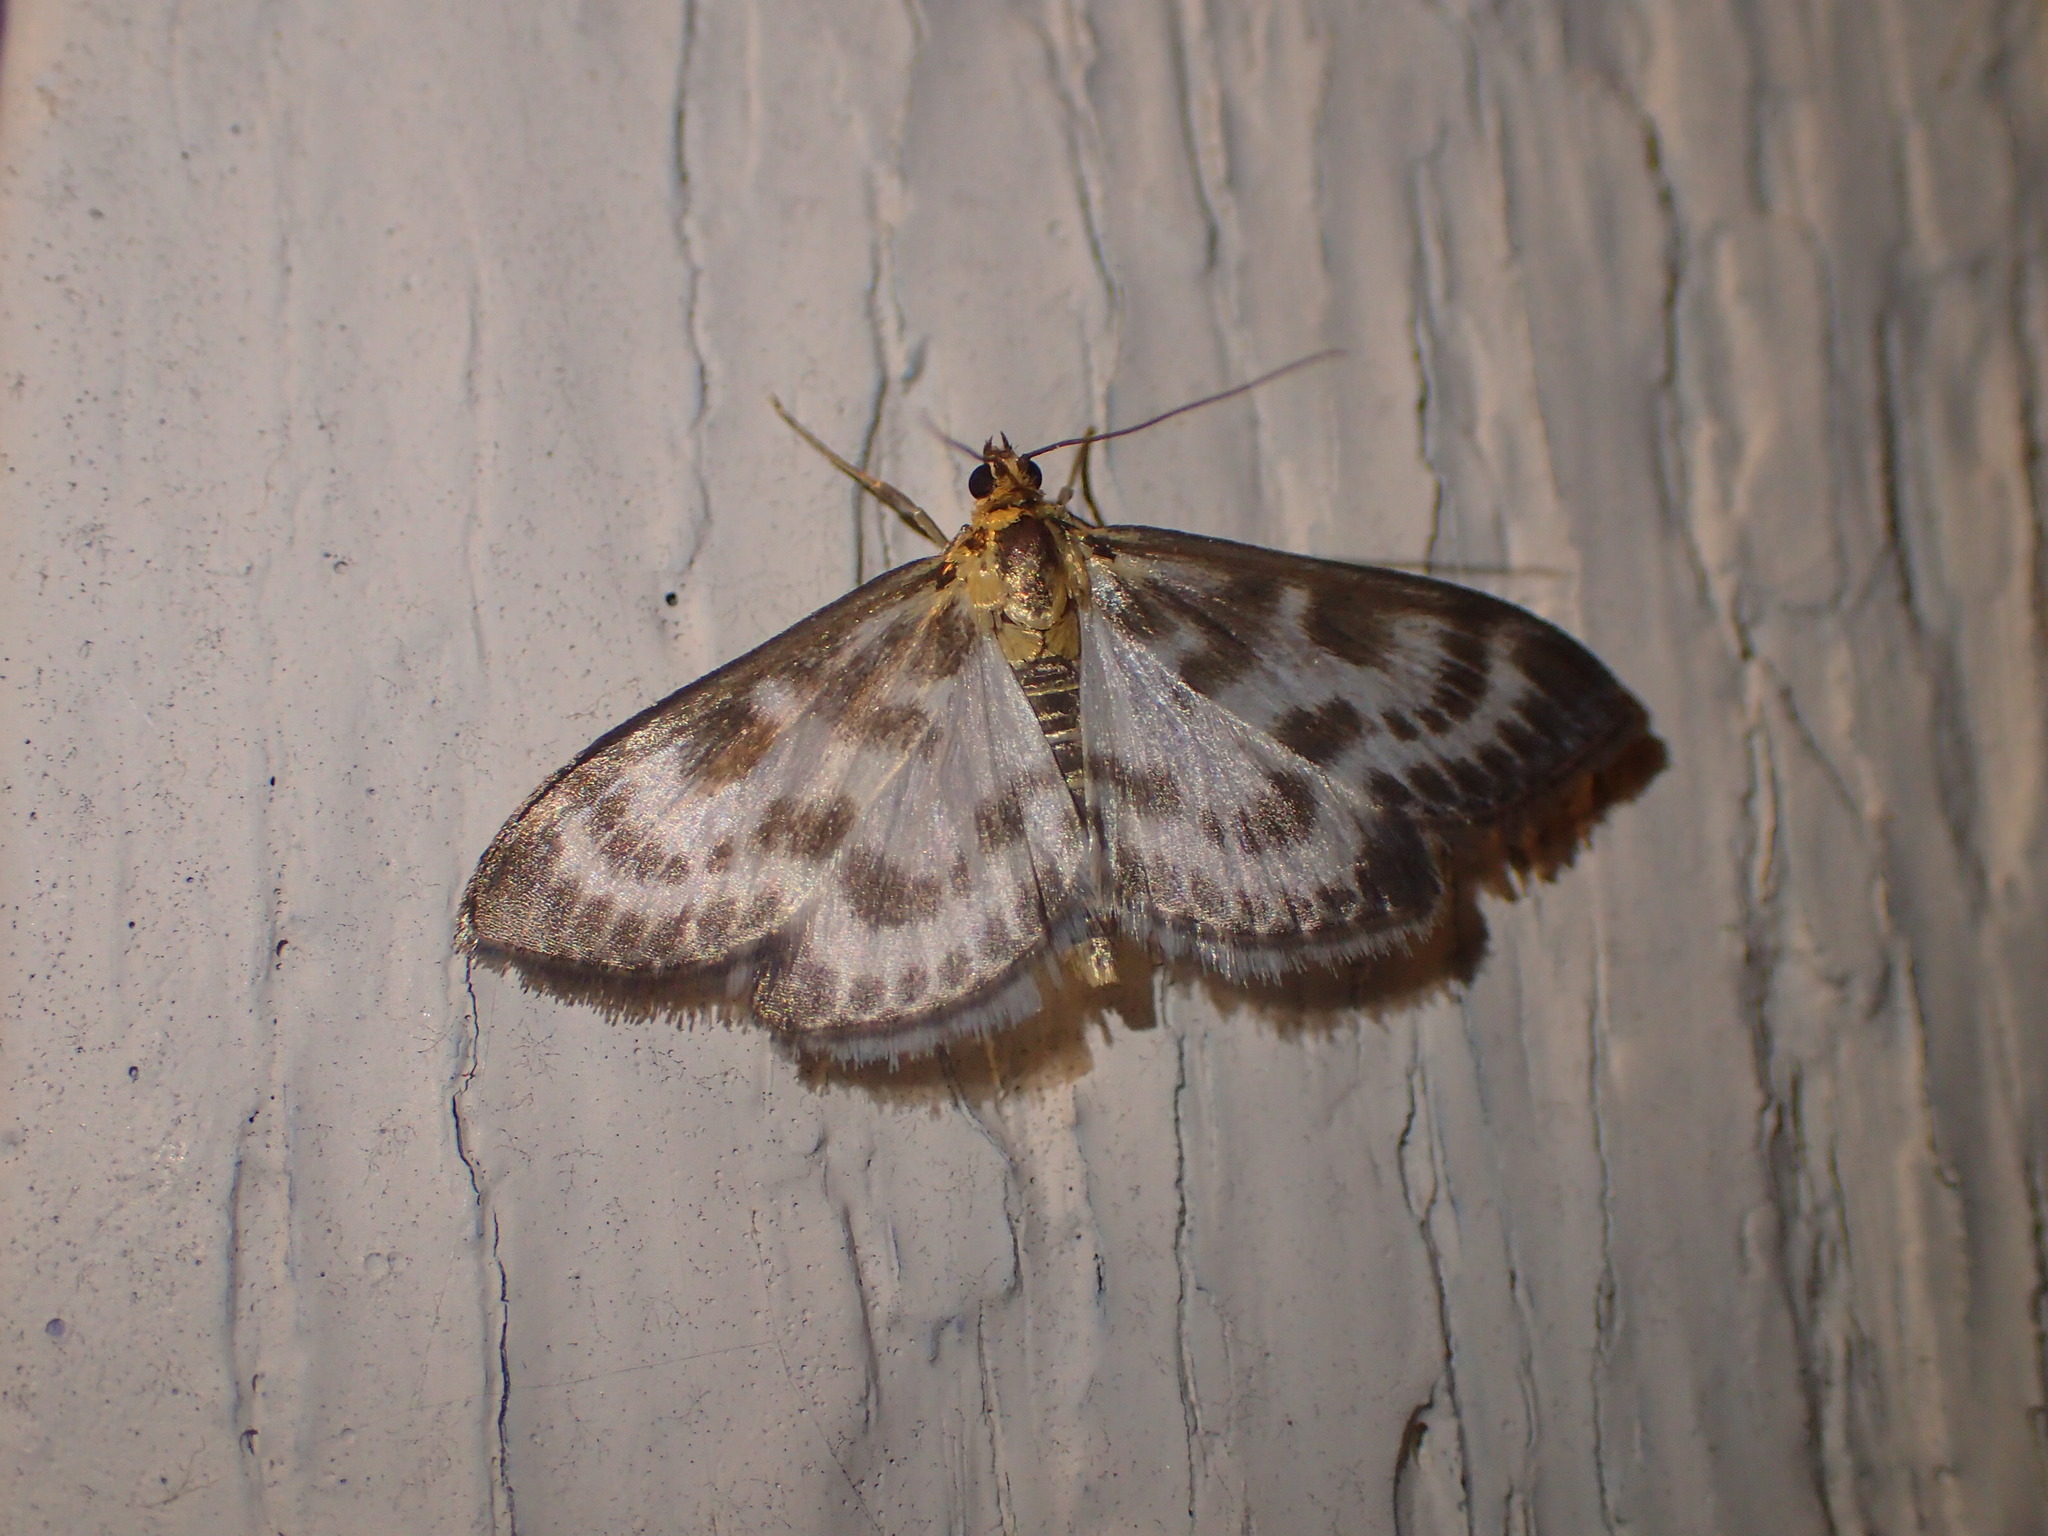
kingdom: Animalia
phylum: Arthropoda
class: Insecta
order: Lepidoptera
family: Crambidae
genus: Anania
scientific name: Anania hortulata
